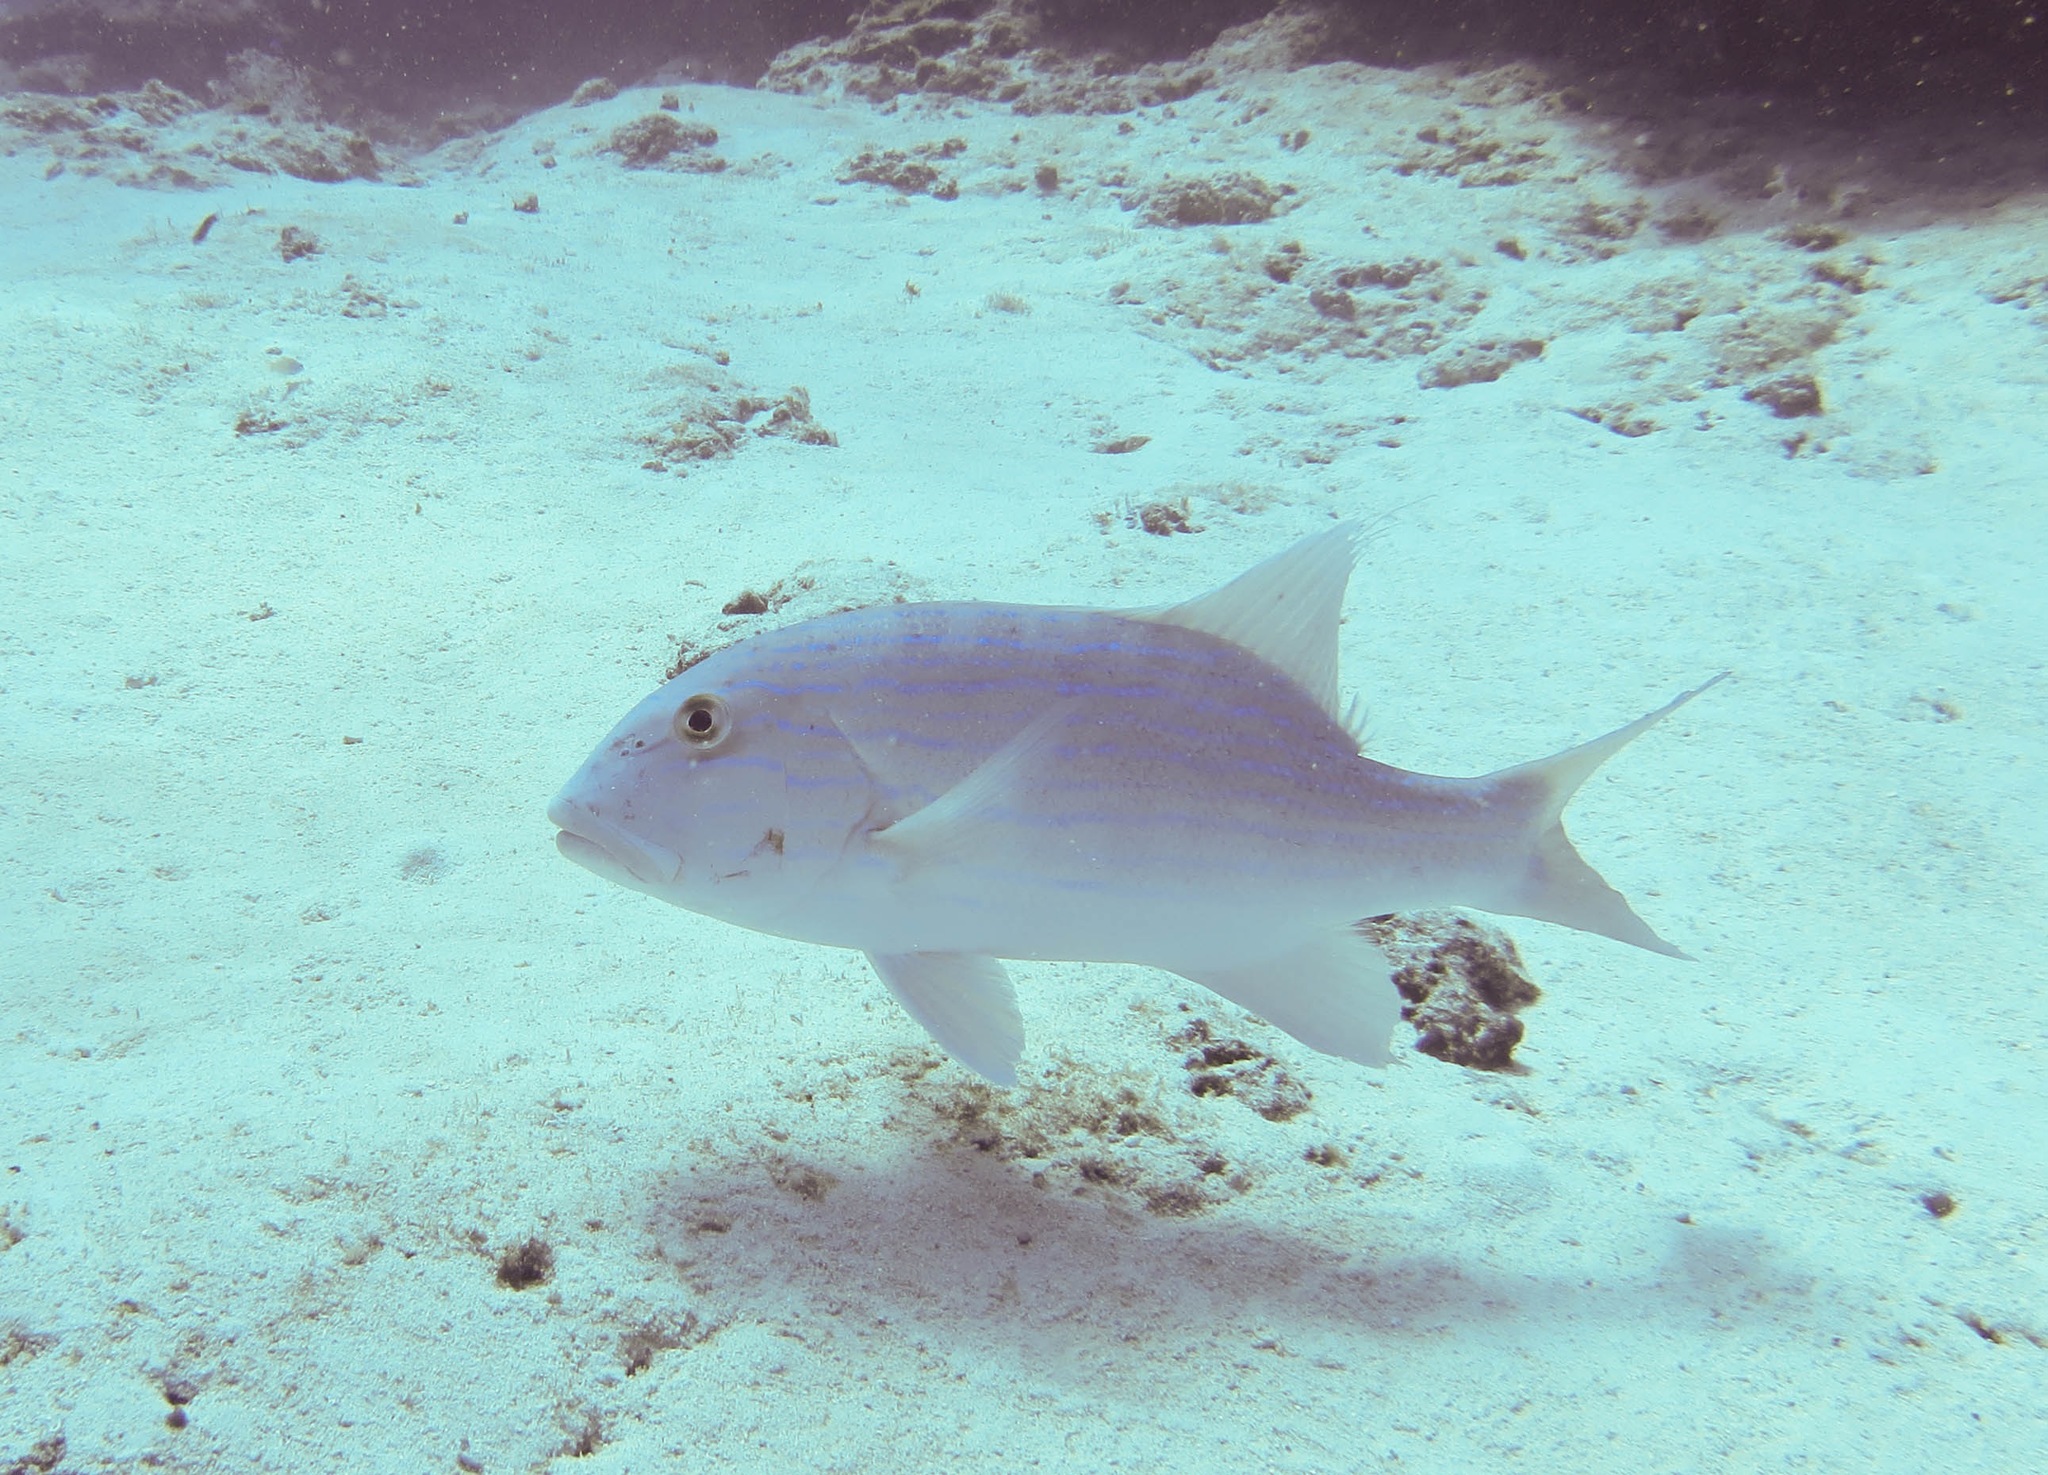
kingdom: Animalia
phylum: Chordata
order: Perciformes
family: Lutjanidae
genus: Symphorus
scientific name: Symphorus nematophorus
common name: Chinamanfish
